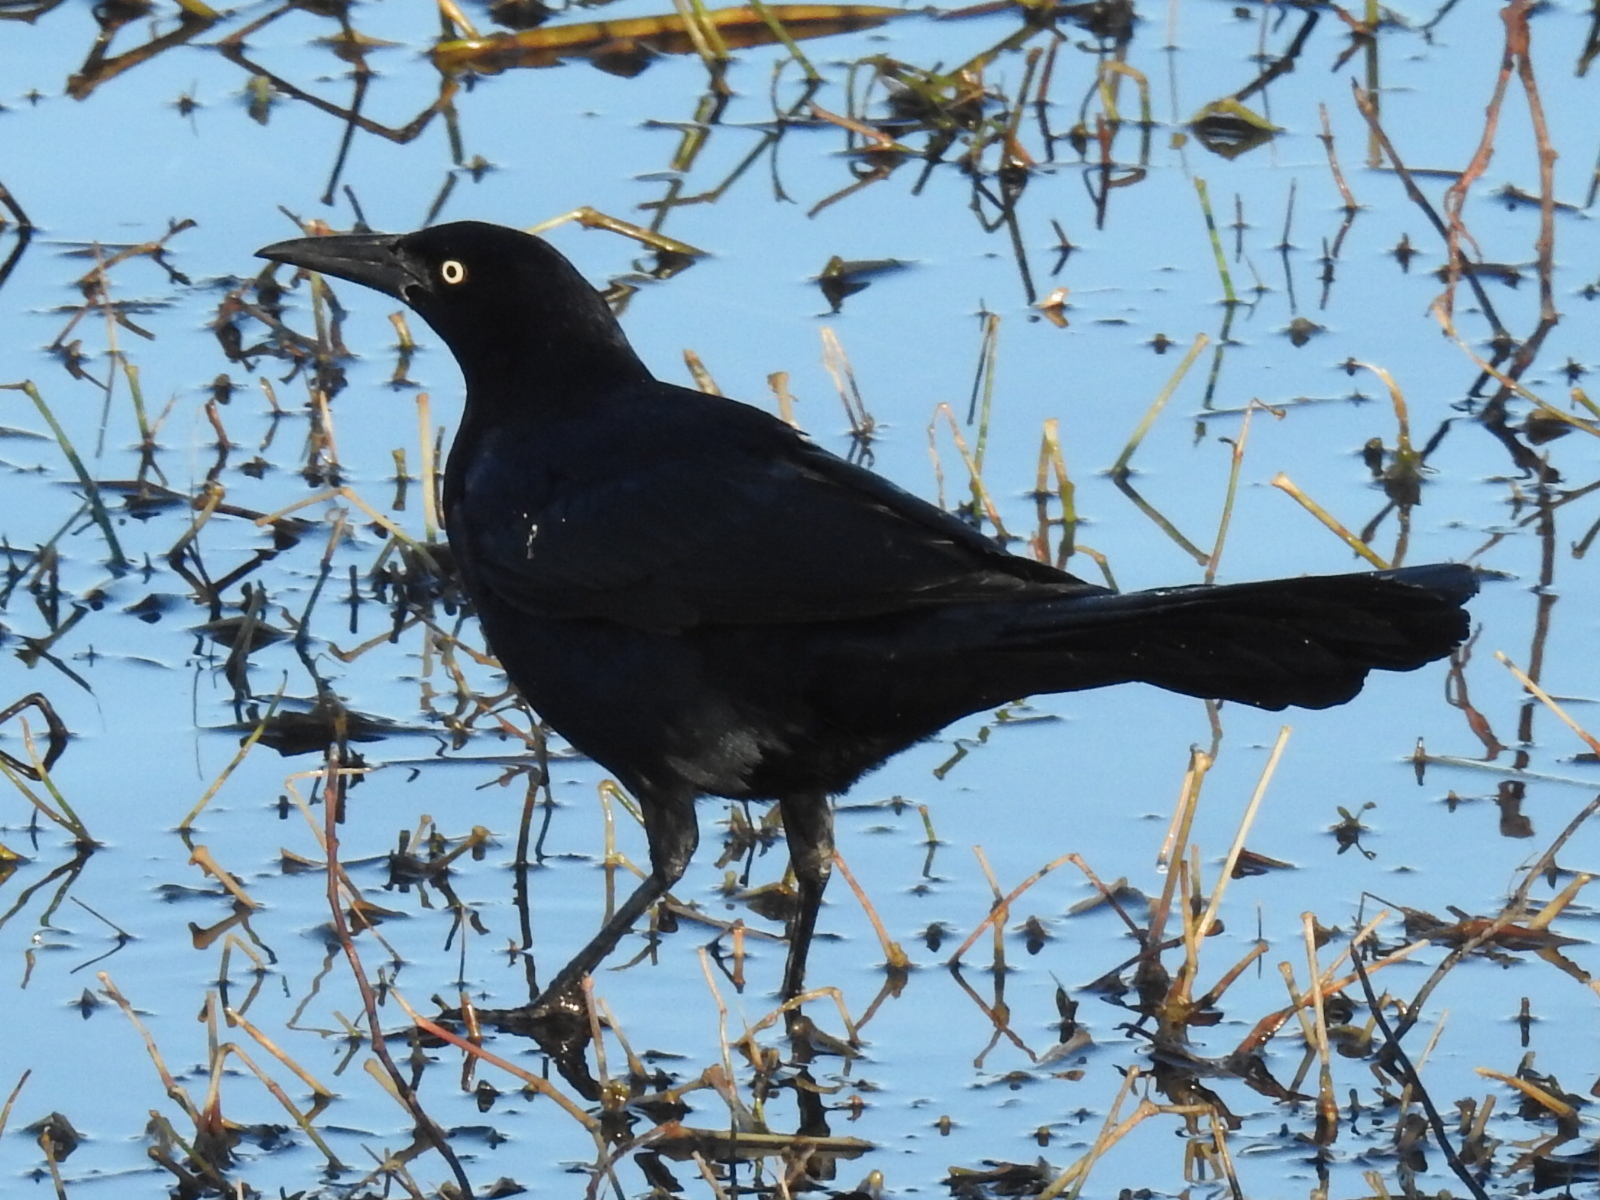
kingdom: Animalia
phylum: Chordata
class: Aves
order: Passeriformes
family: Icteridae
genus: Quiscalus
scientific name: Quiscalus mexicanus
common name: Great-tailed grackle
